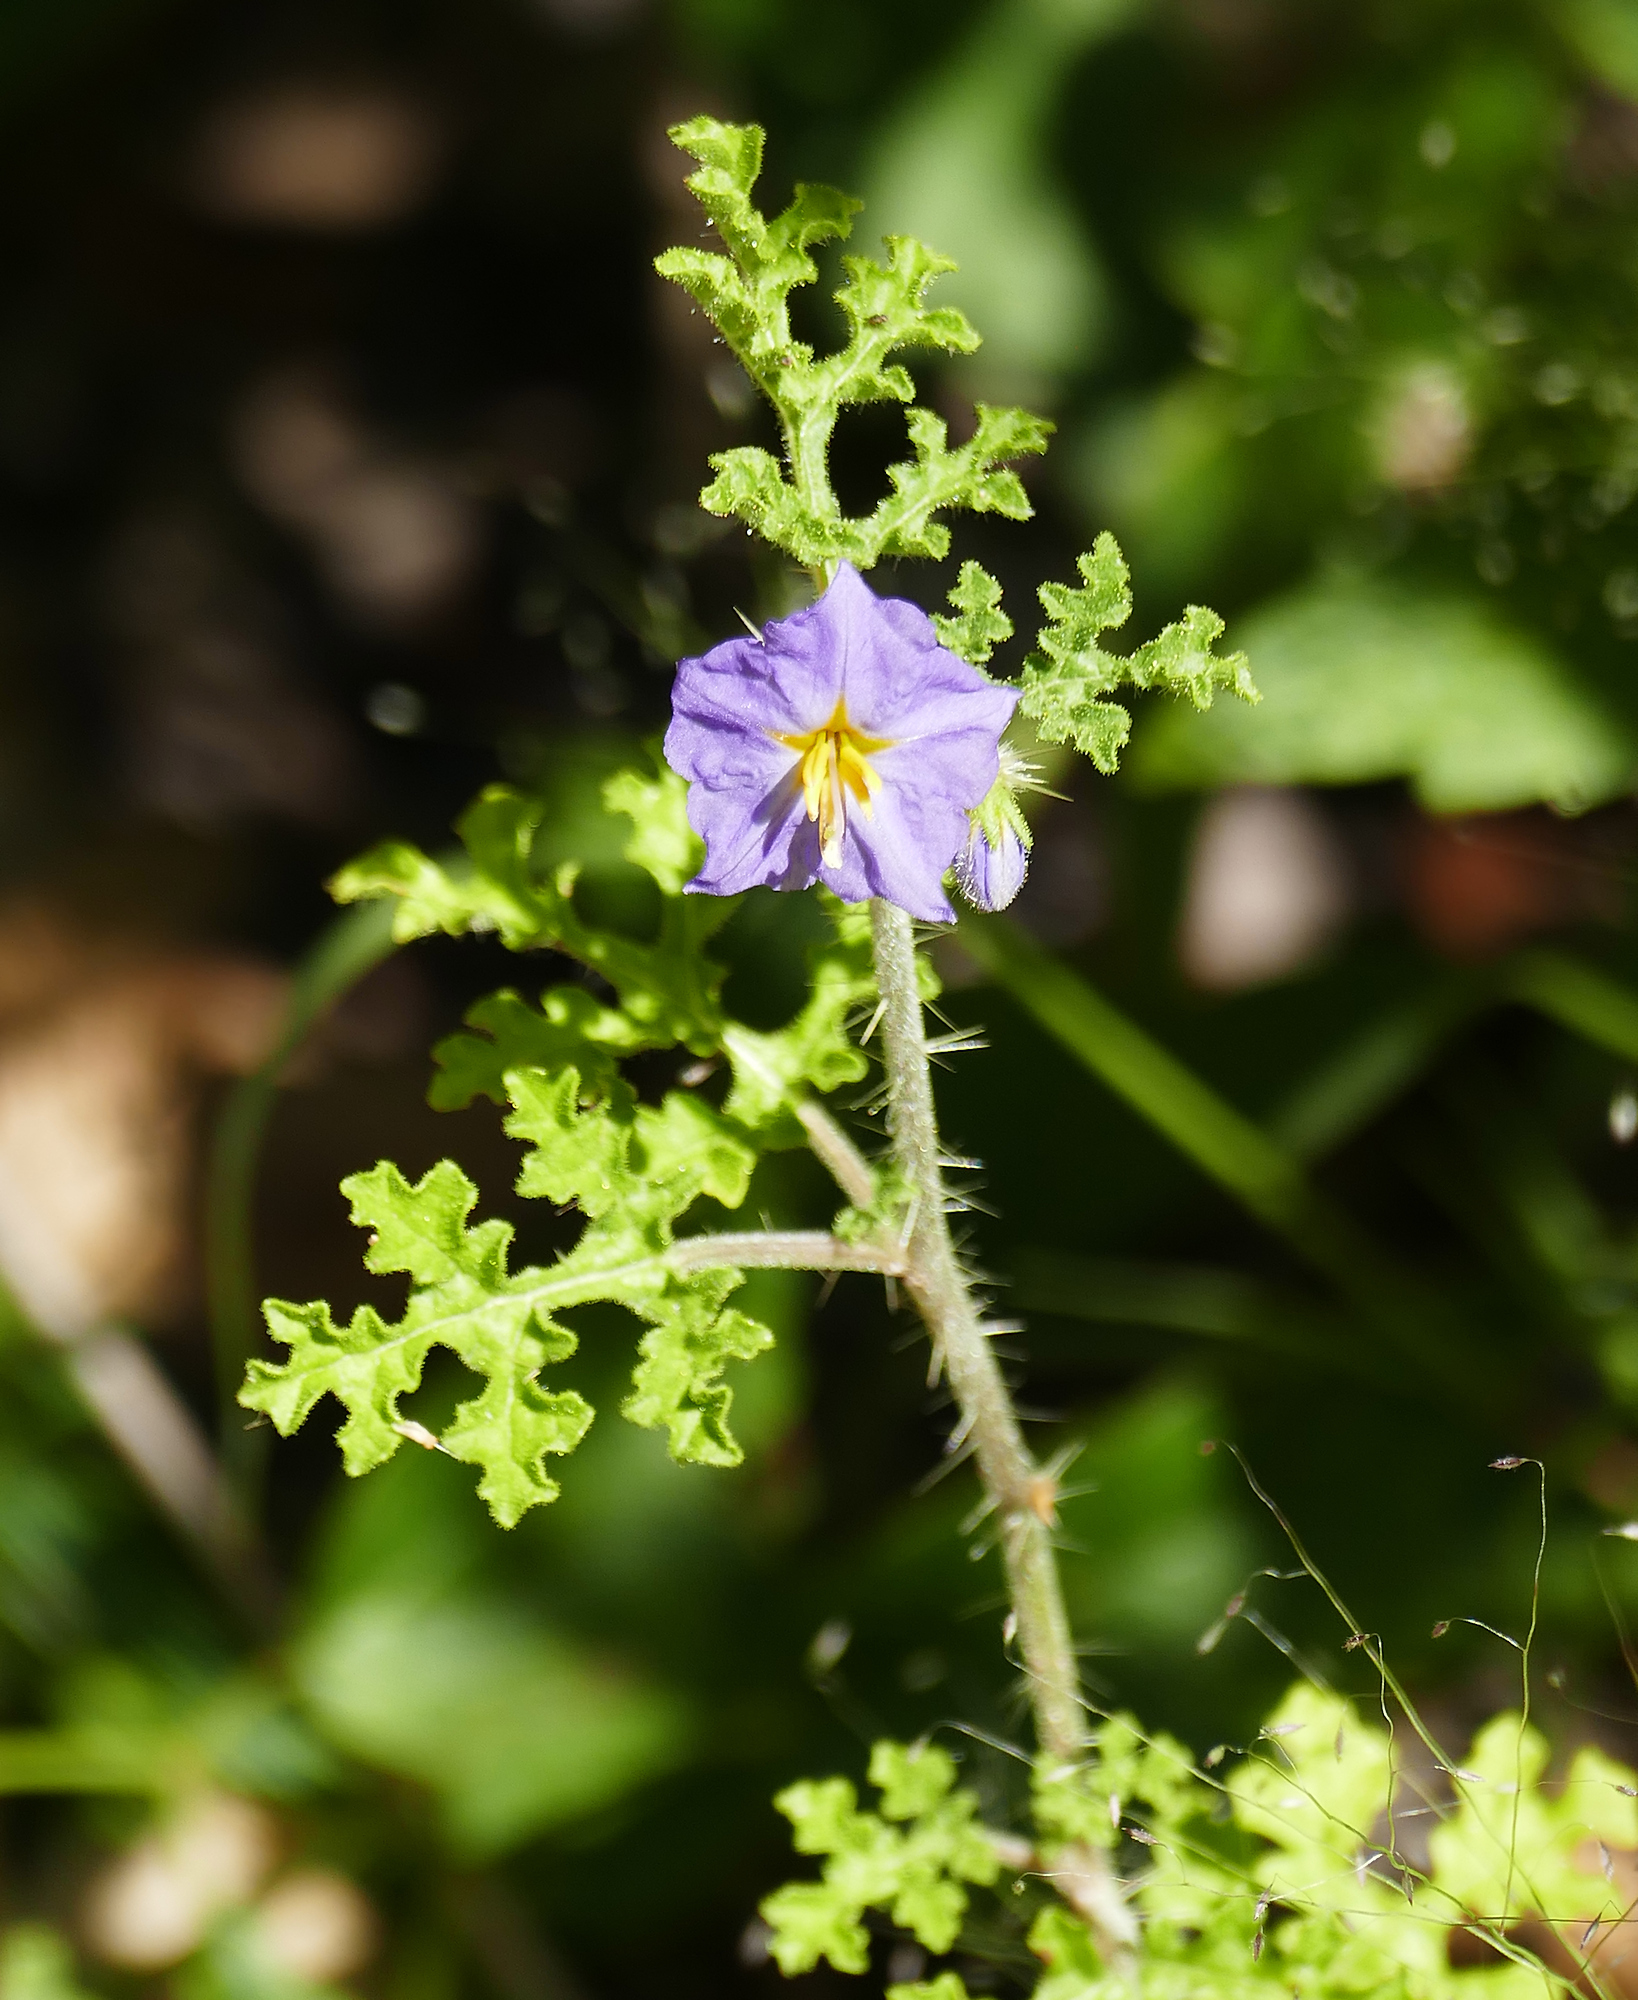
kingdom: Plantae
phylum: Tracheophyta
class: Magnoliopsida
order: Solanales
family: Solanaceae
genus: Solanum
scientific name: Solanum heterodoxum
